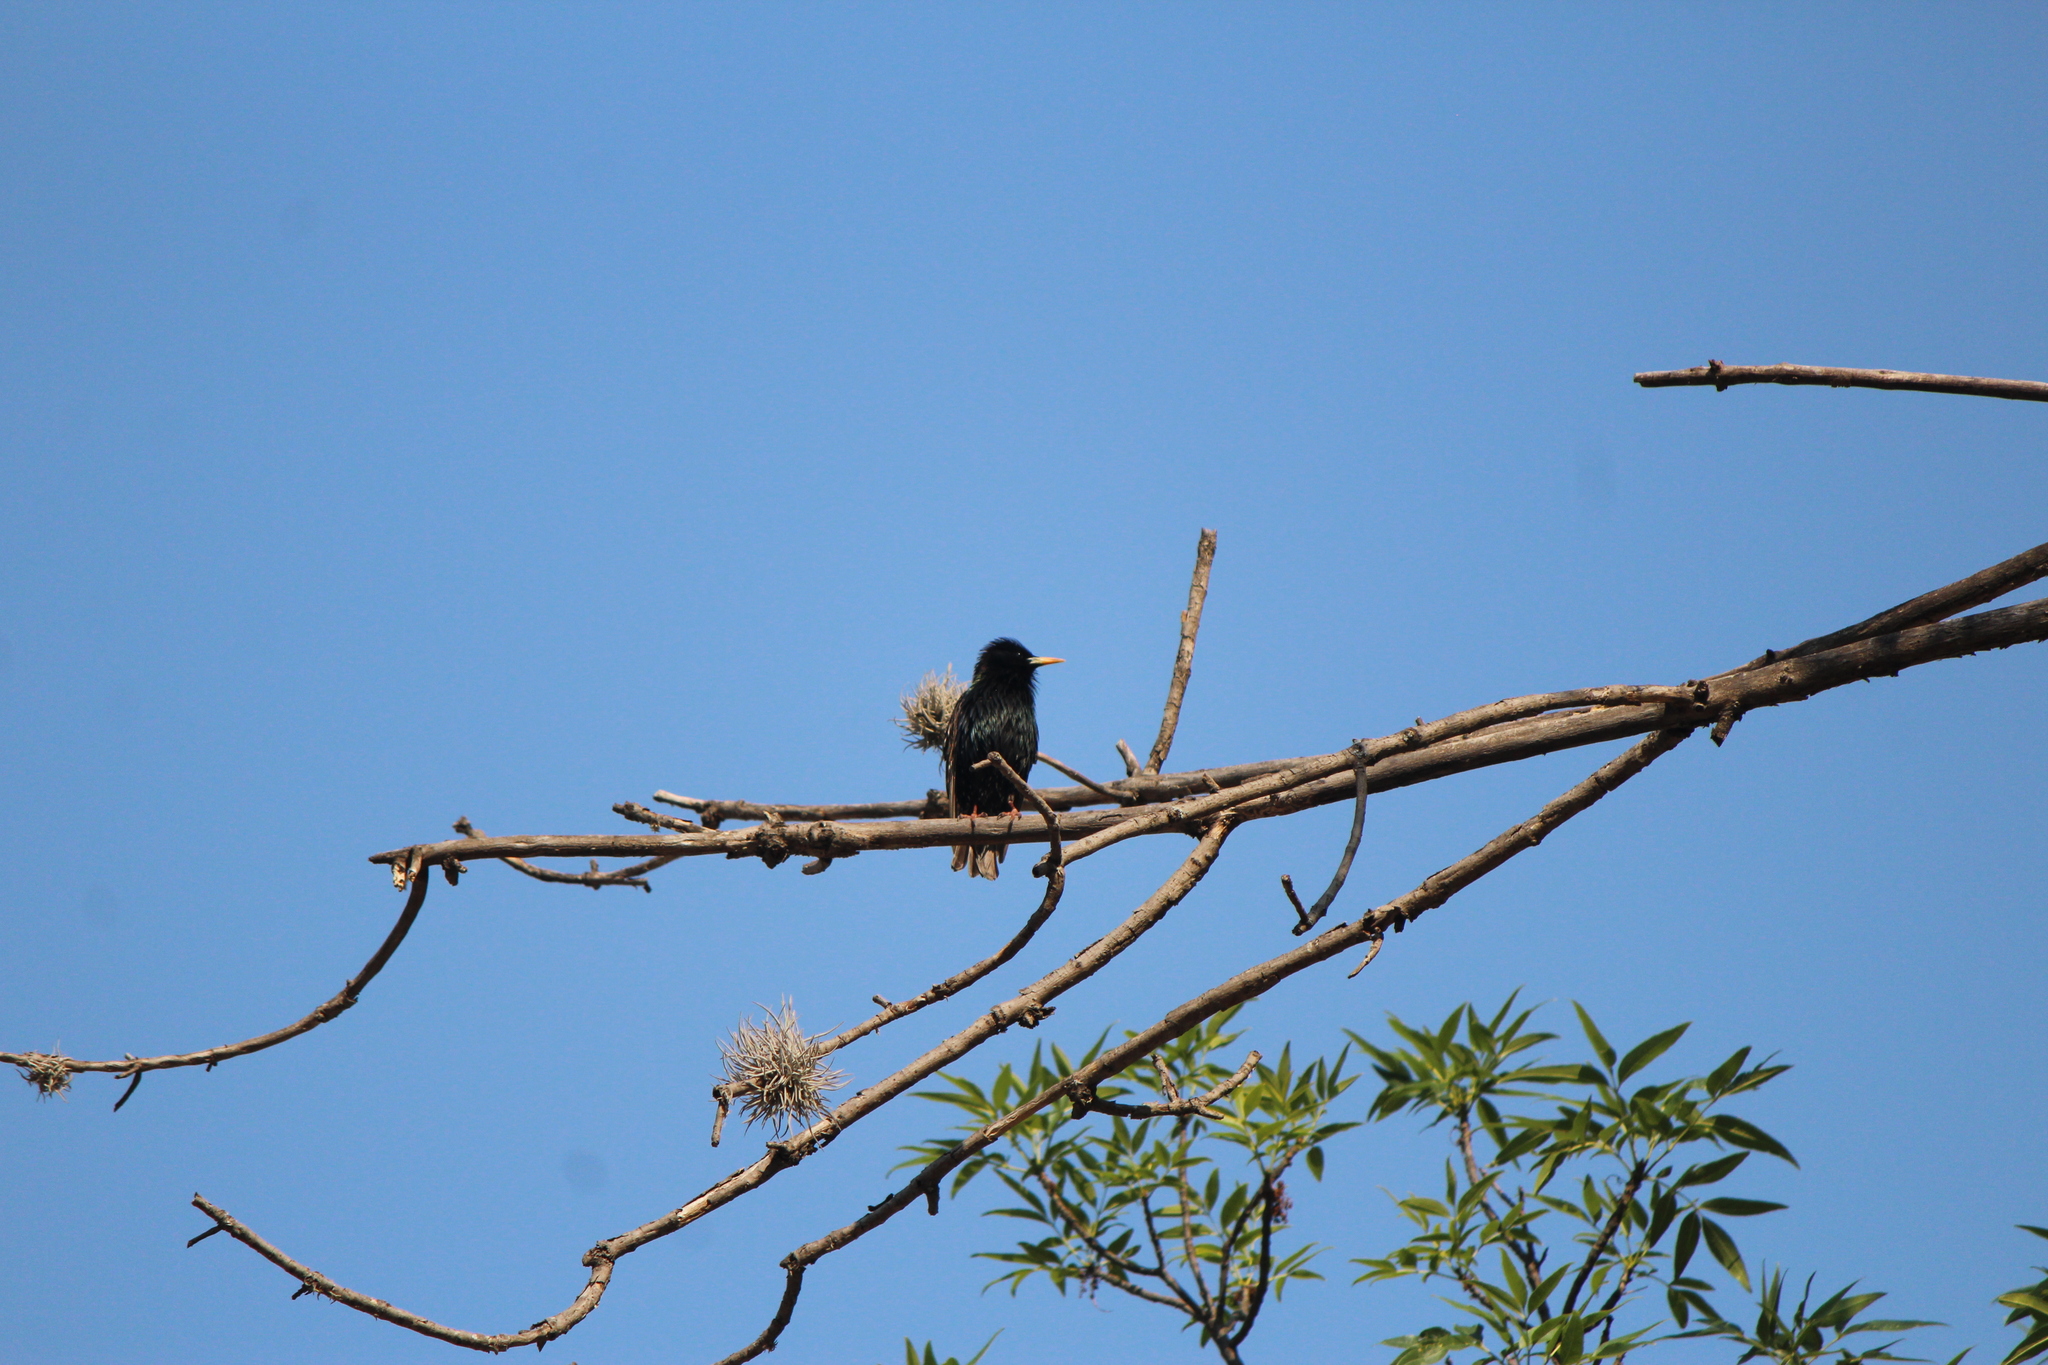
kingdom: Animalia
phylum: Chordata
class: Aves
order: Passeriformes
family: Sturnidae
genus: Sturnus
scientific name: Sturnus vulgaris
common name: Common starling
